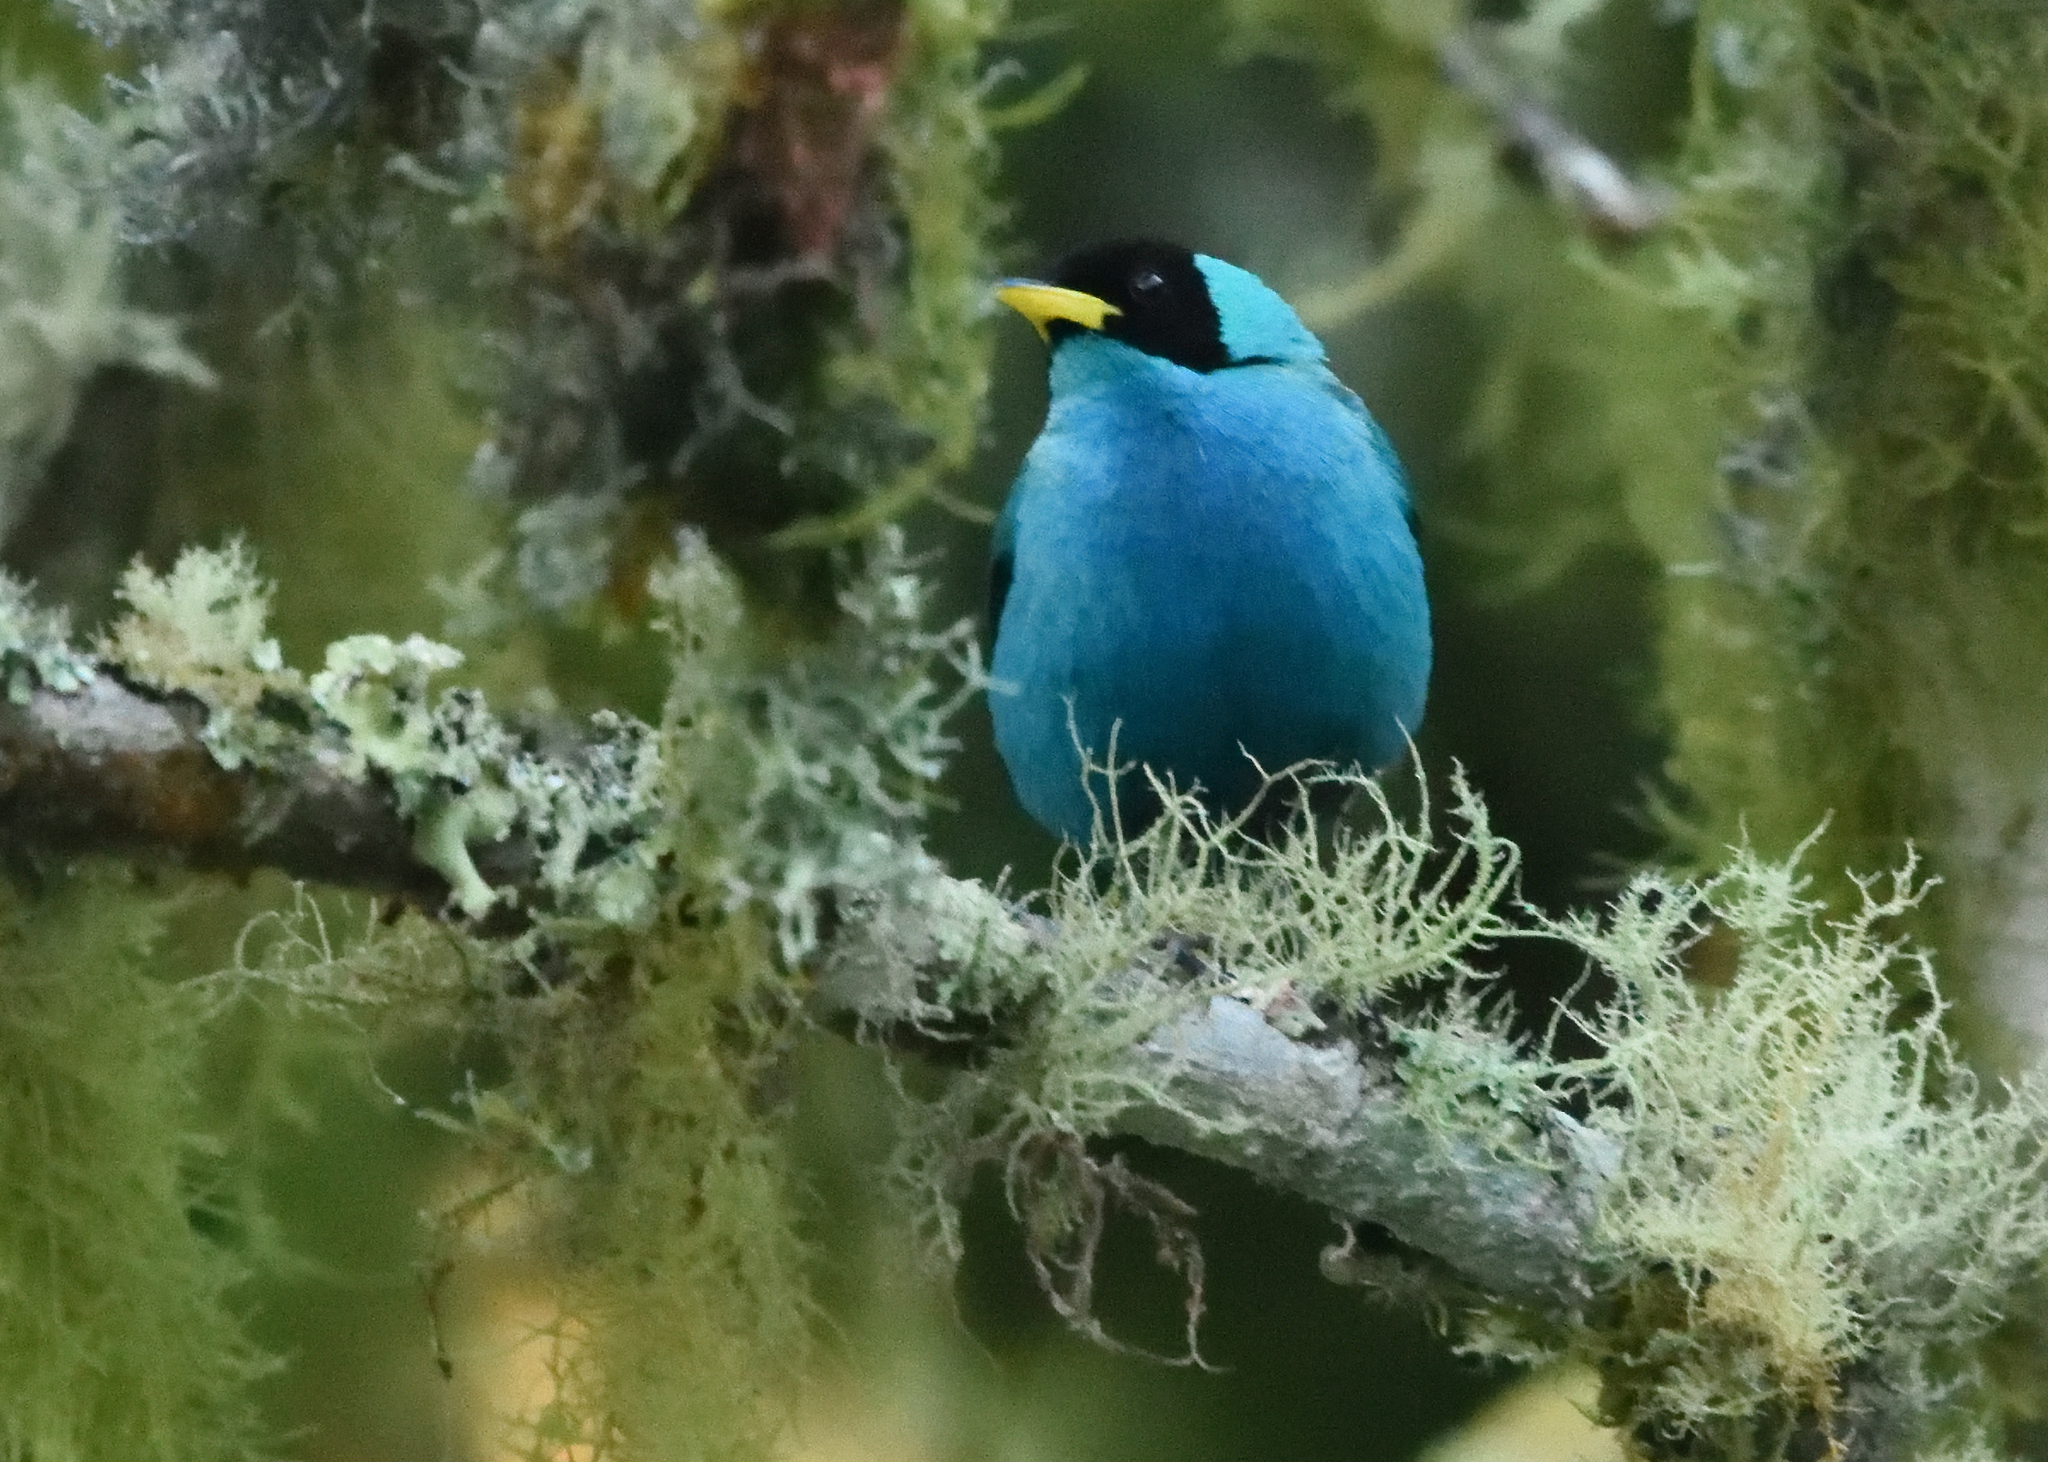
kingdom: Animalia
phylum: Chordata
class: Aves
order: Passeriformes
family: Thraupidae
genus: Chlorophanes
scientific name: Chlorophanes spiza
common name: Green honeycreeper
